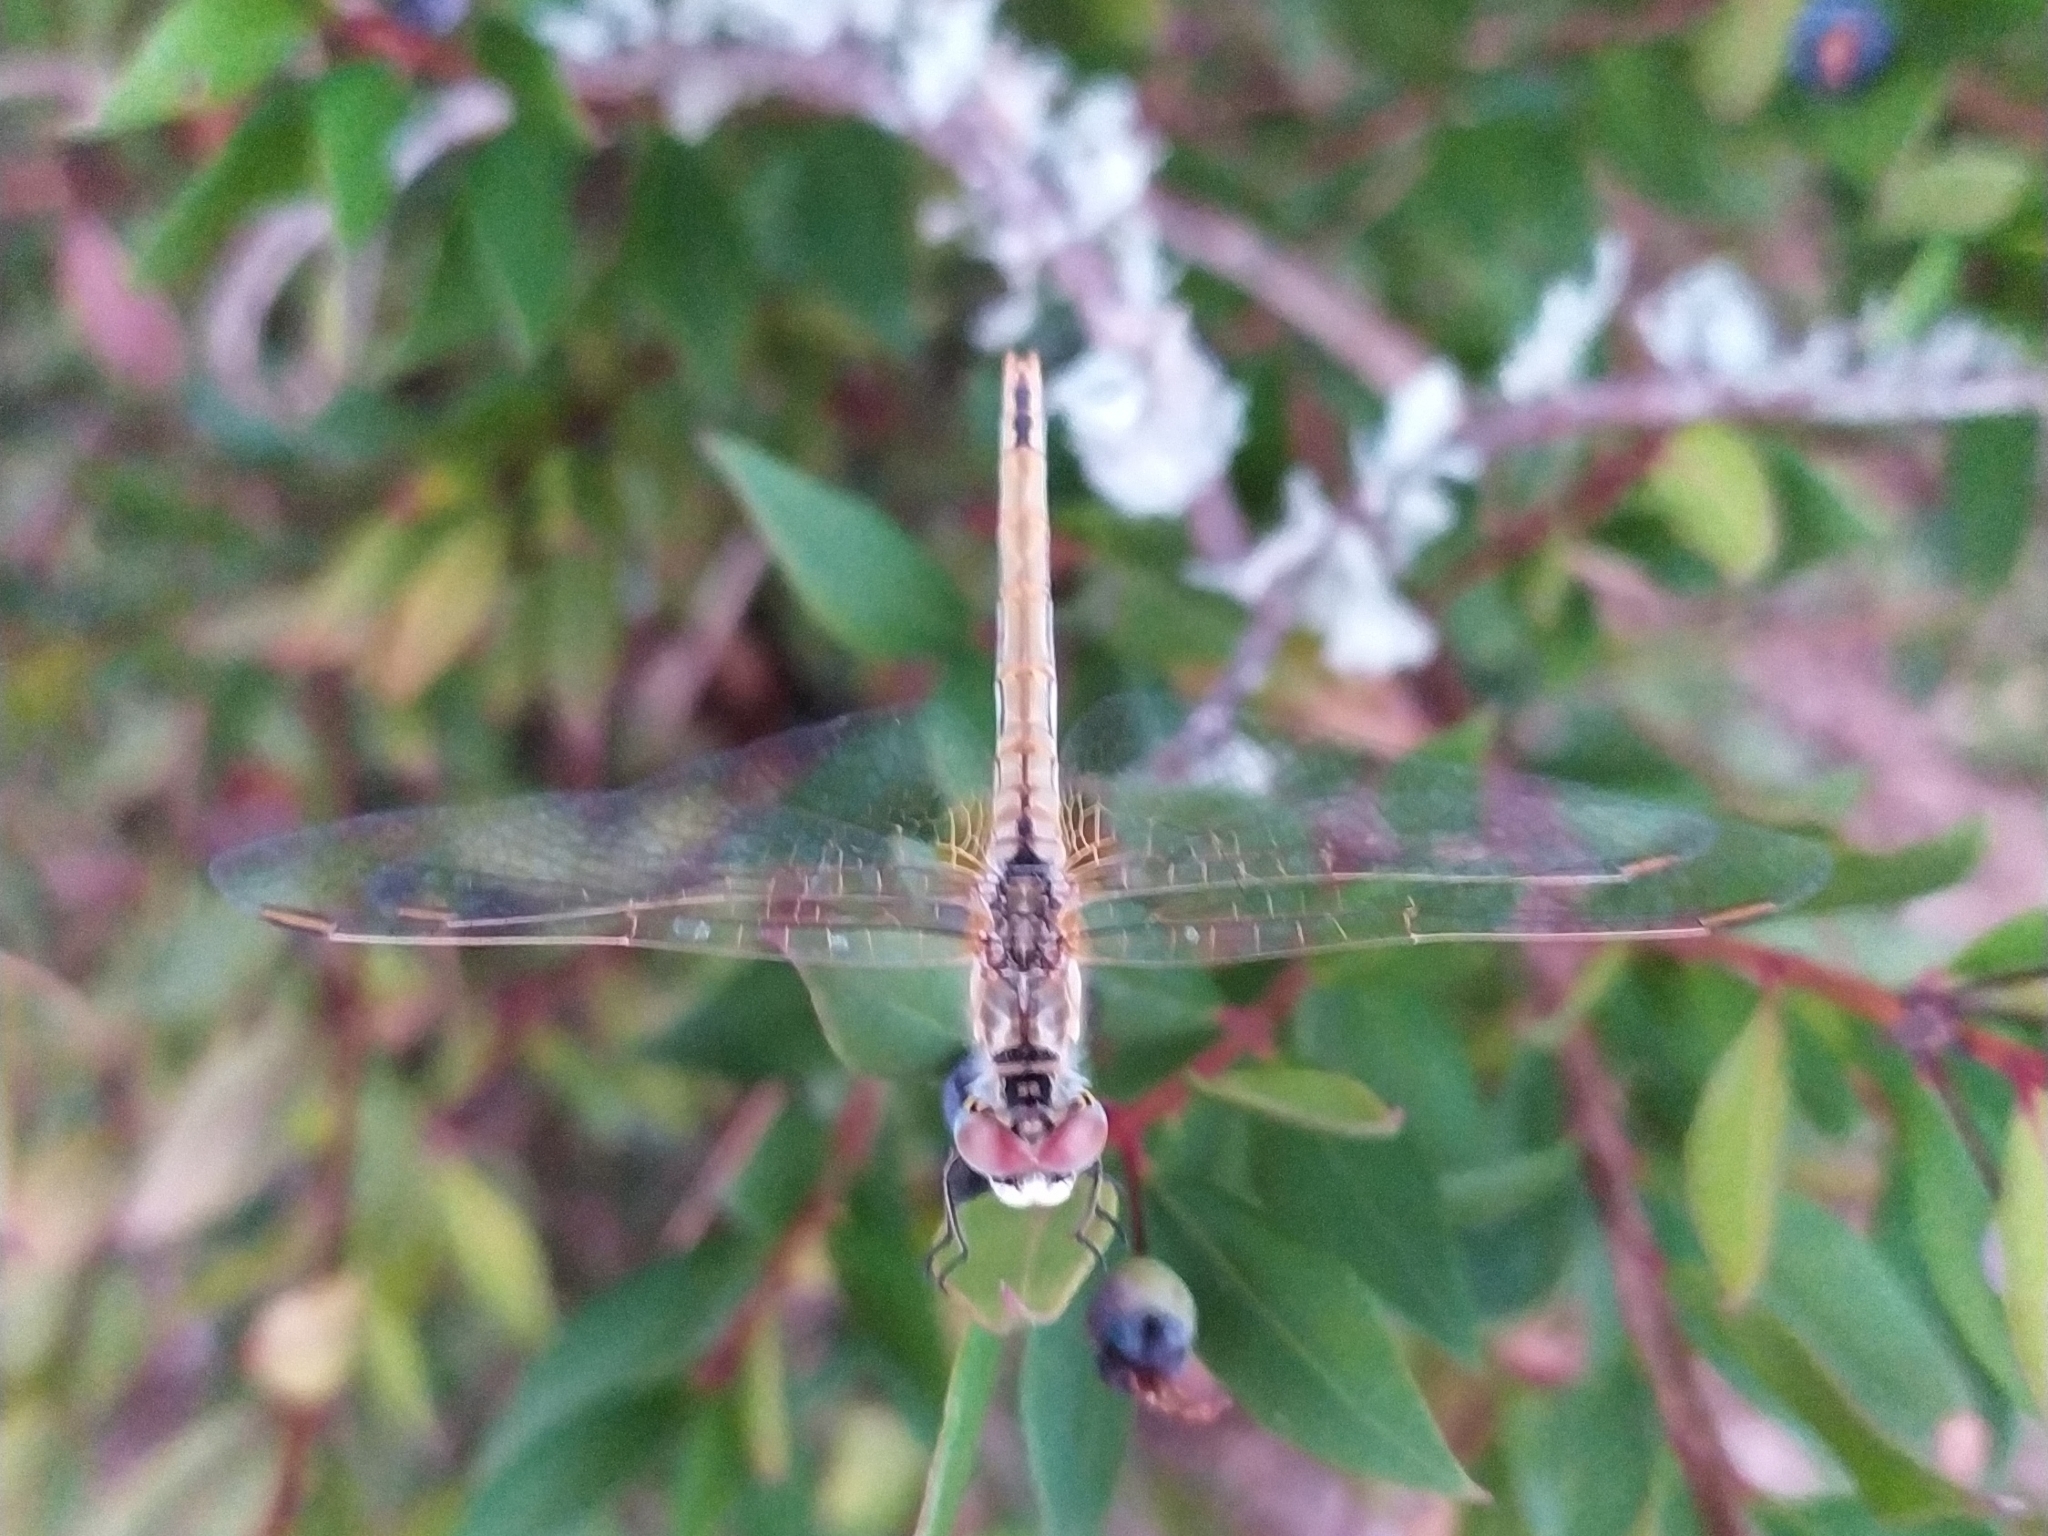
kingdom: Animalia
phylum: Arthropoda
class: Insecta
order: Odonata
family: Libellulidae
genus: Sympetrum
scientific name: Sympetrum fonscolombii
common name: Red-veined darter
